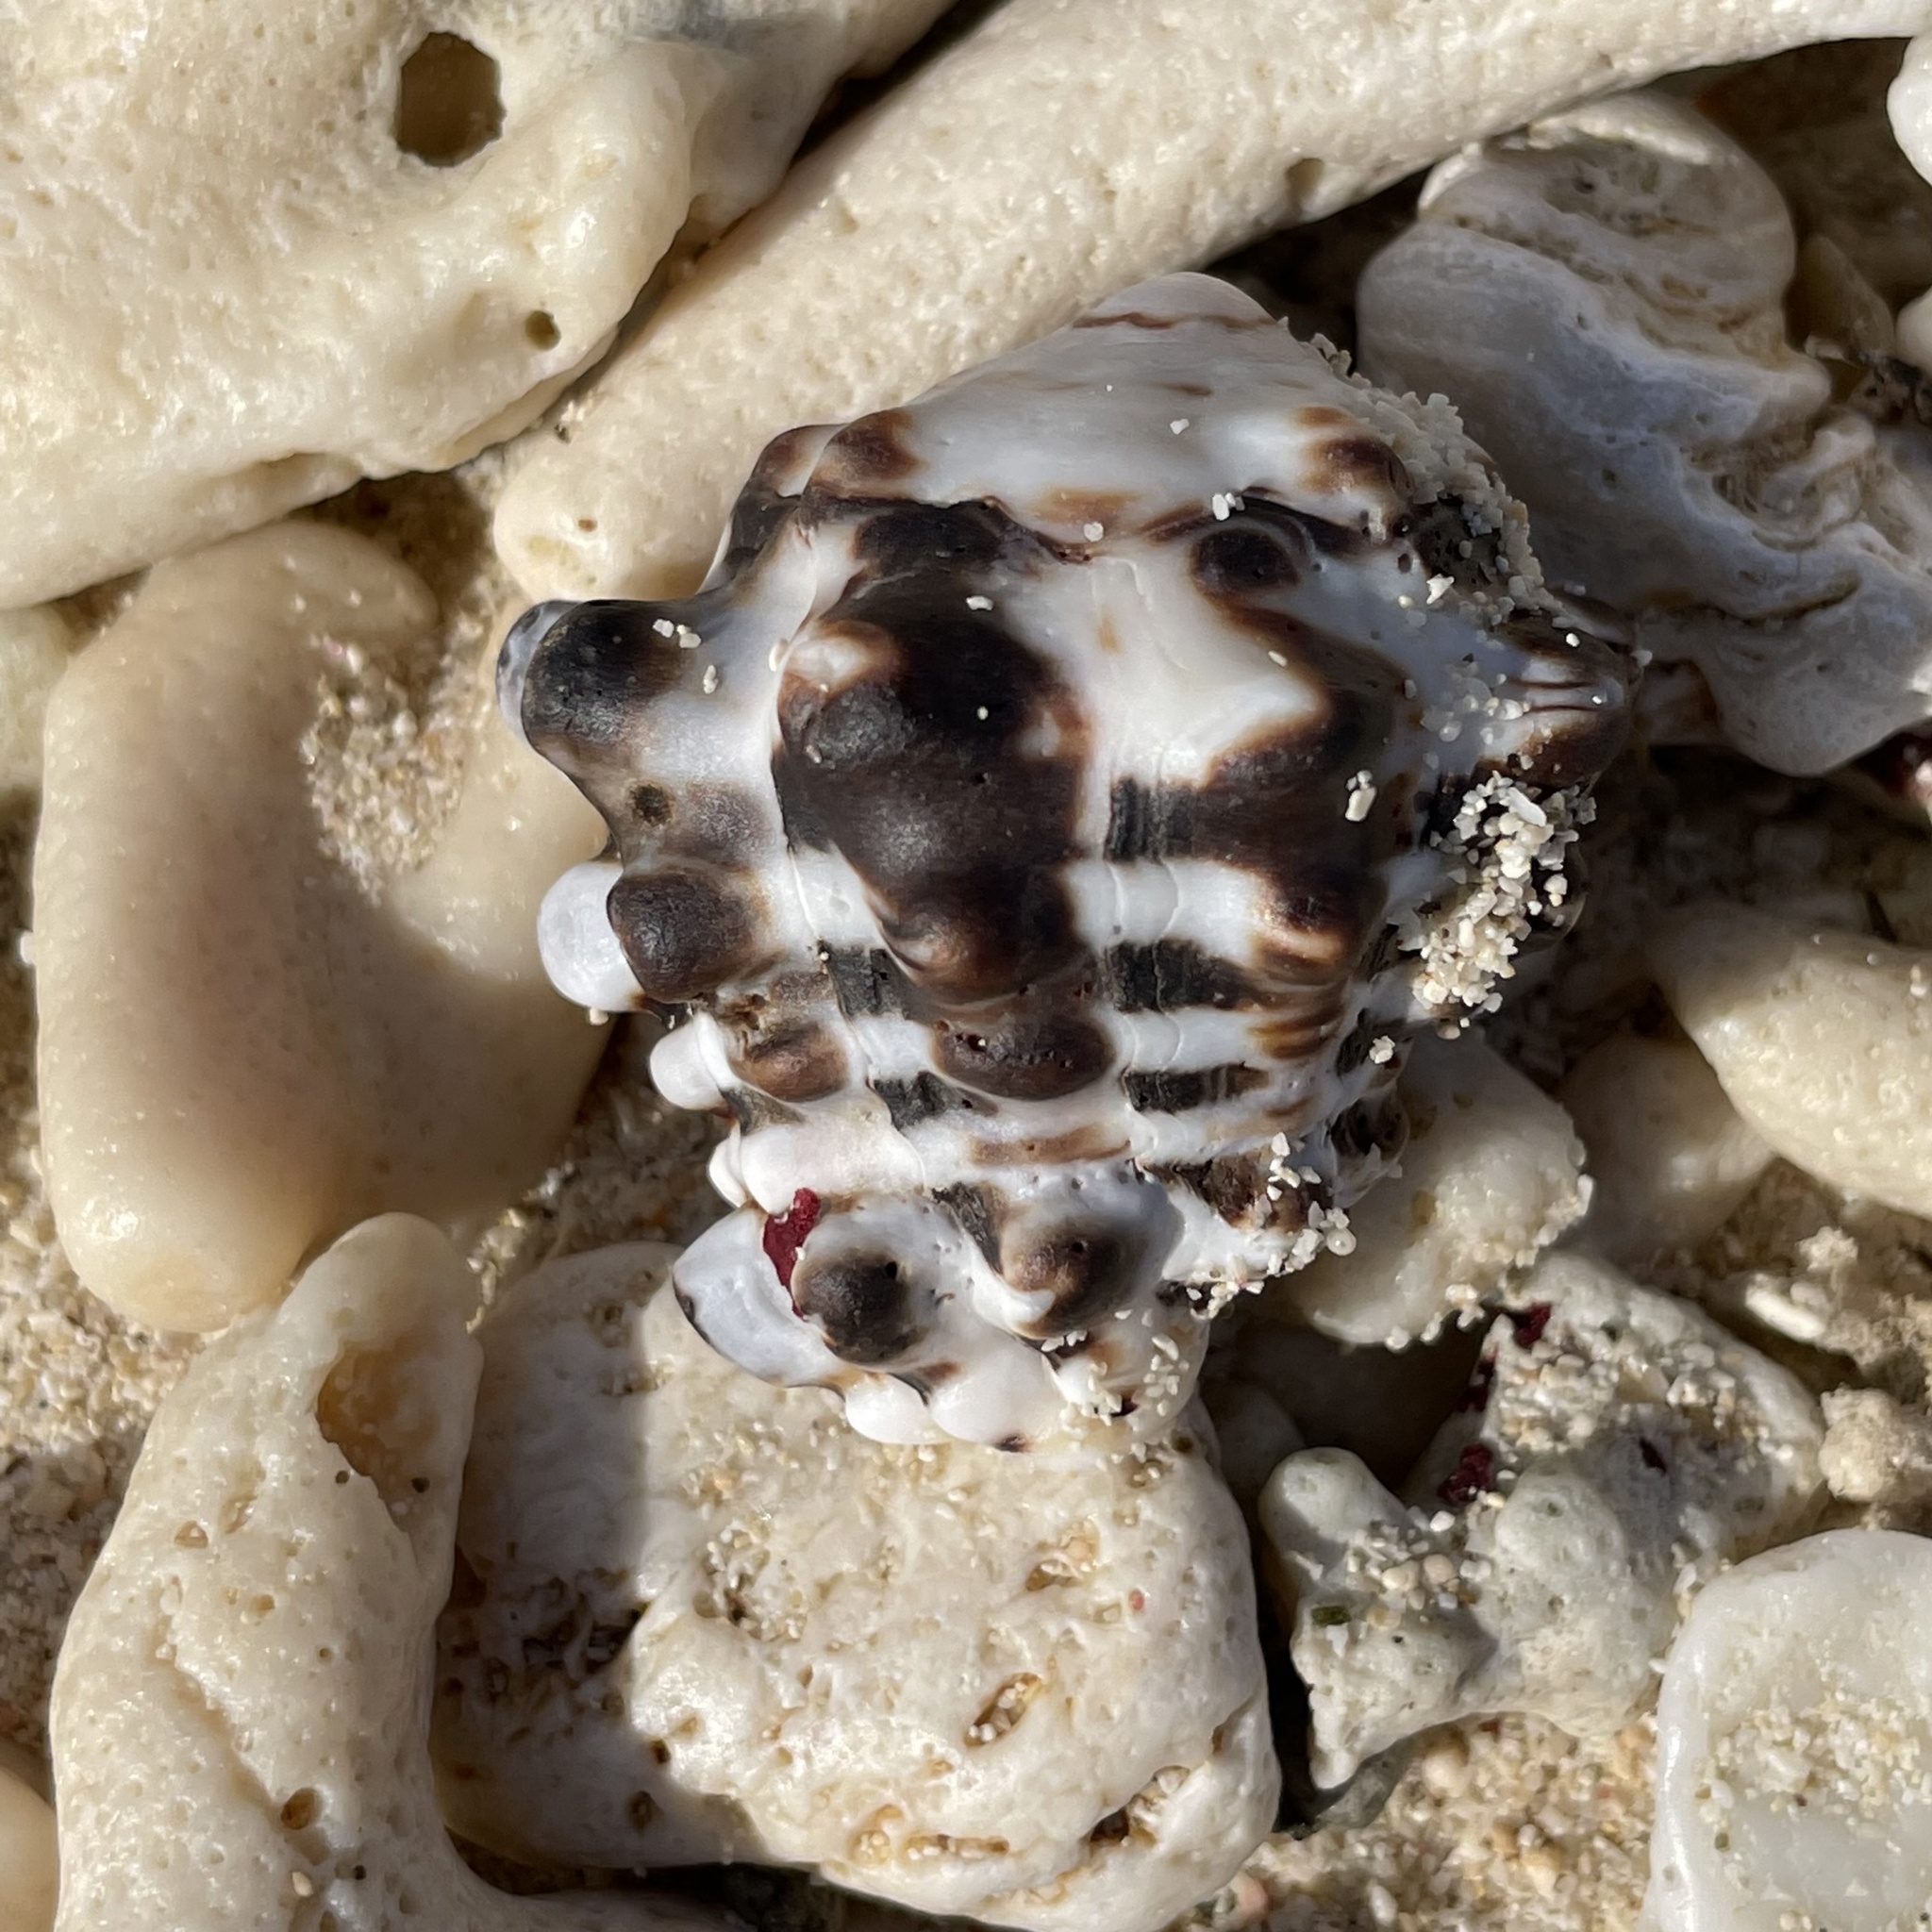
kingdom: Animalia
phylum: Mollusca
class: Gastropoda
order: Neogastropoda
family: Turbinellidae
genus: Vasum
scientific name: Vasum turbinellus
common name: Pacific top vase
